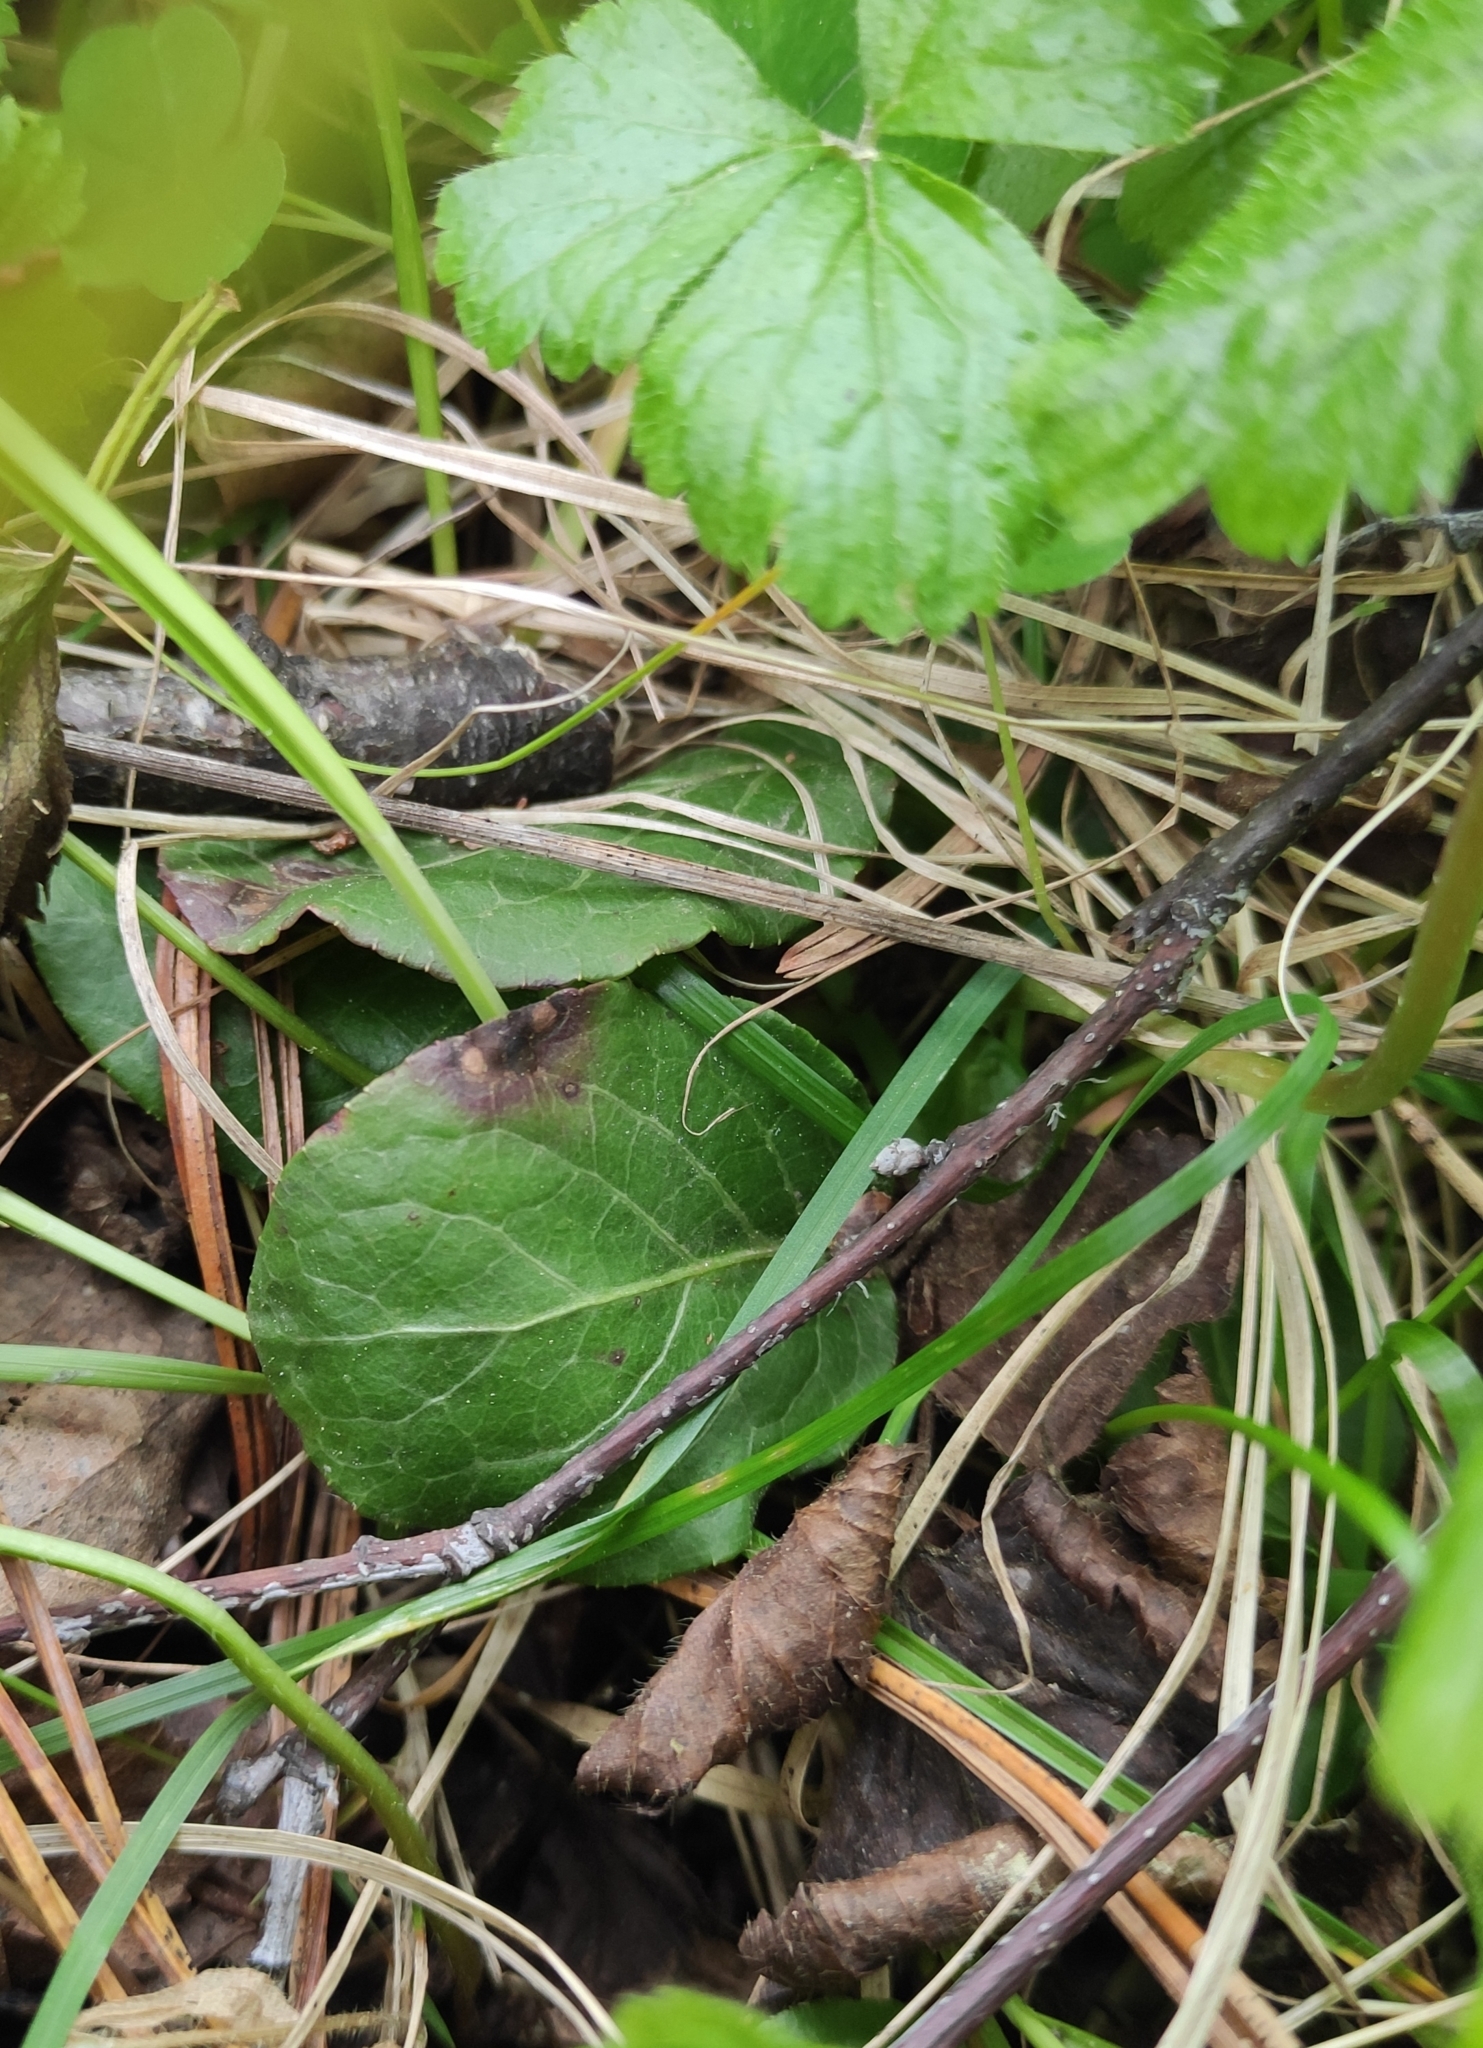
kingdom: Plantae
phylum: Tracheophyta
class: Magnoliopsida
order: Ericales
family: Ericaceae
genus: Pyrola
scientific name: Pyrola minor
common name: Common wintergreen
